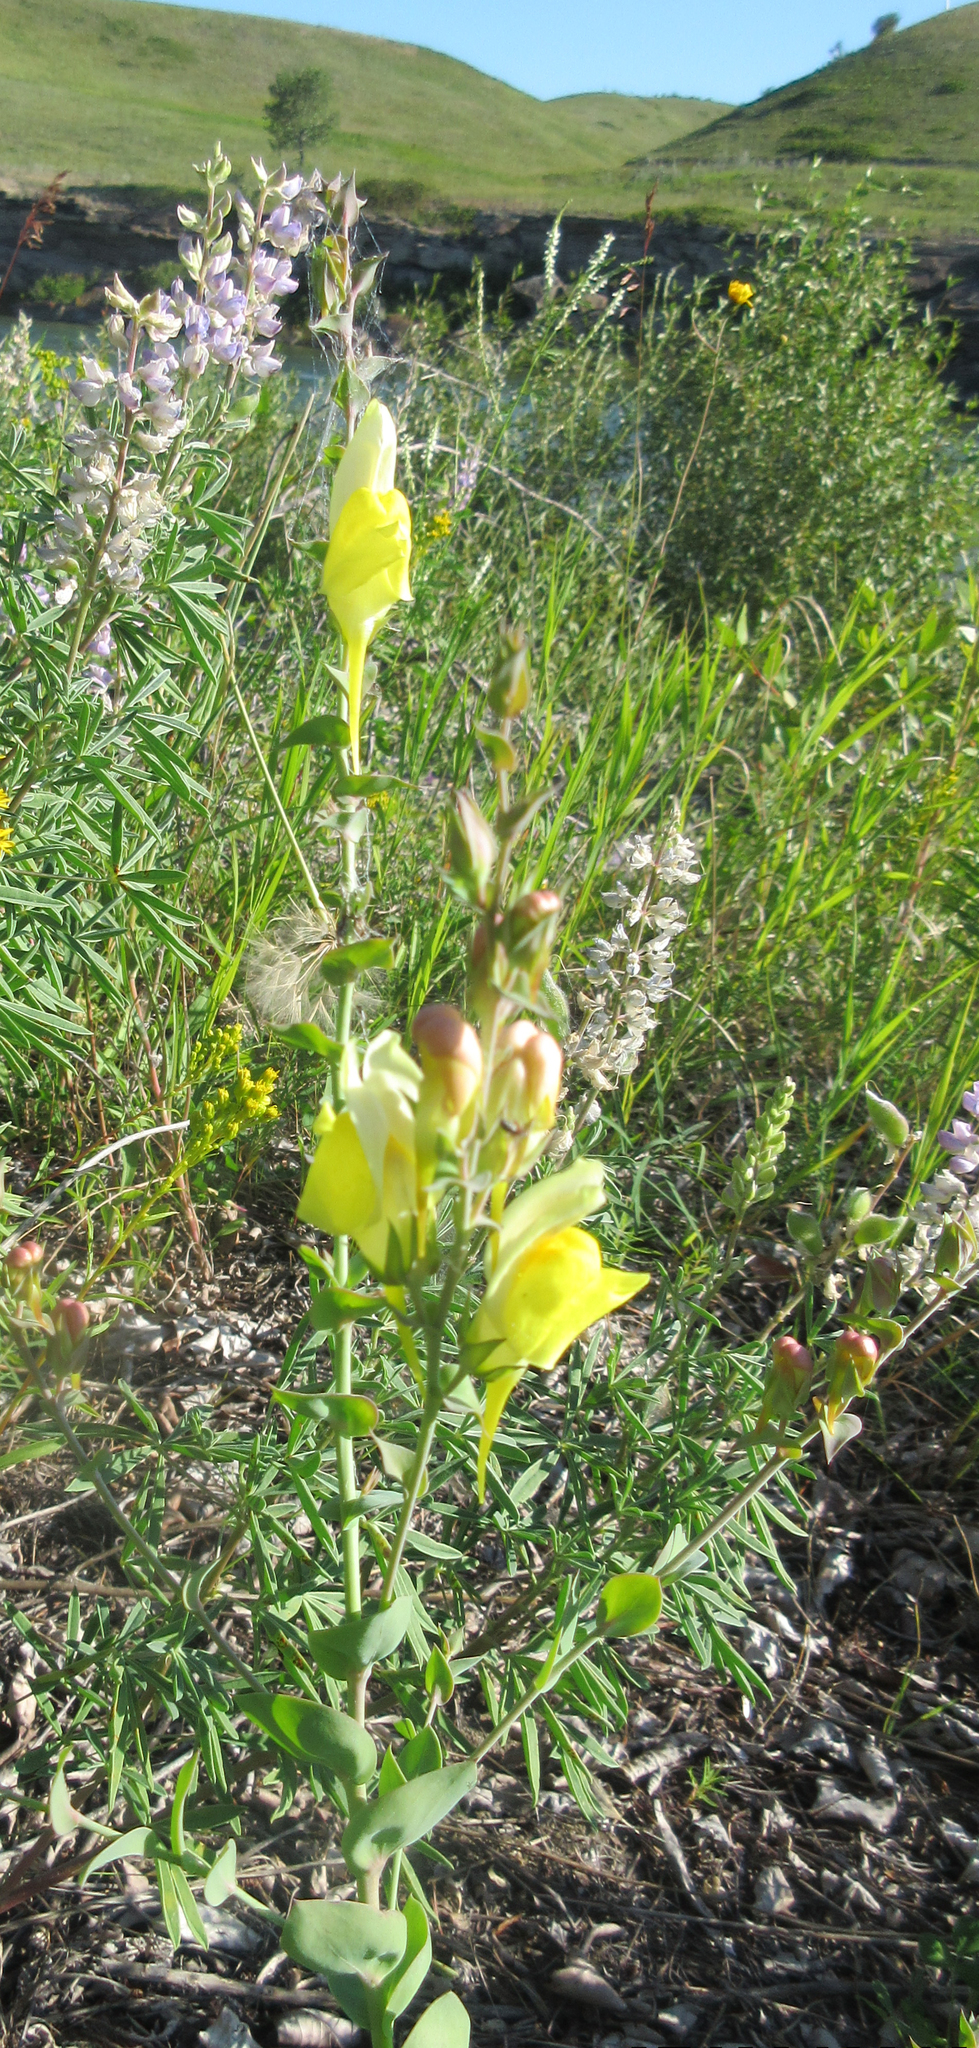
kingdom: Plantae
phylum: Tracheophyta
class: Magnoliopsida
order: Lamiales
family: Plantaginaceae
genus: Linaria
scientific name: Linaria dalmatica
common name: Dalmatian toadflax
